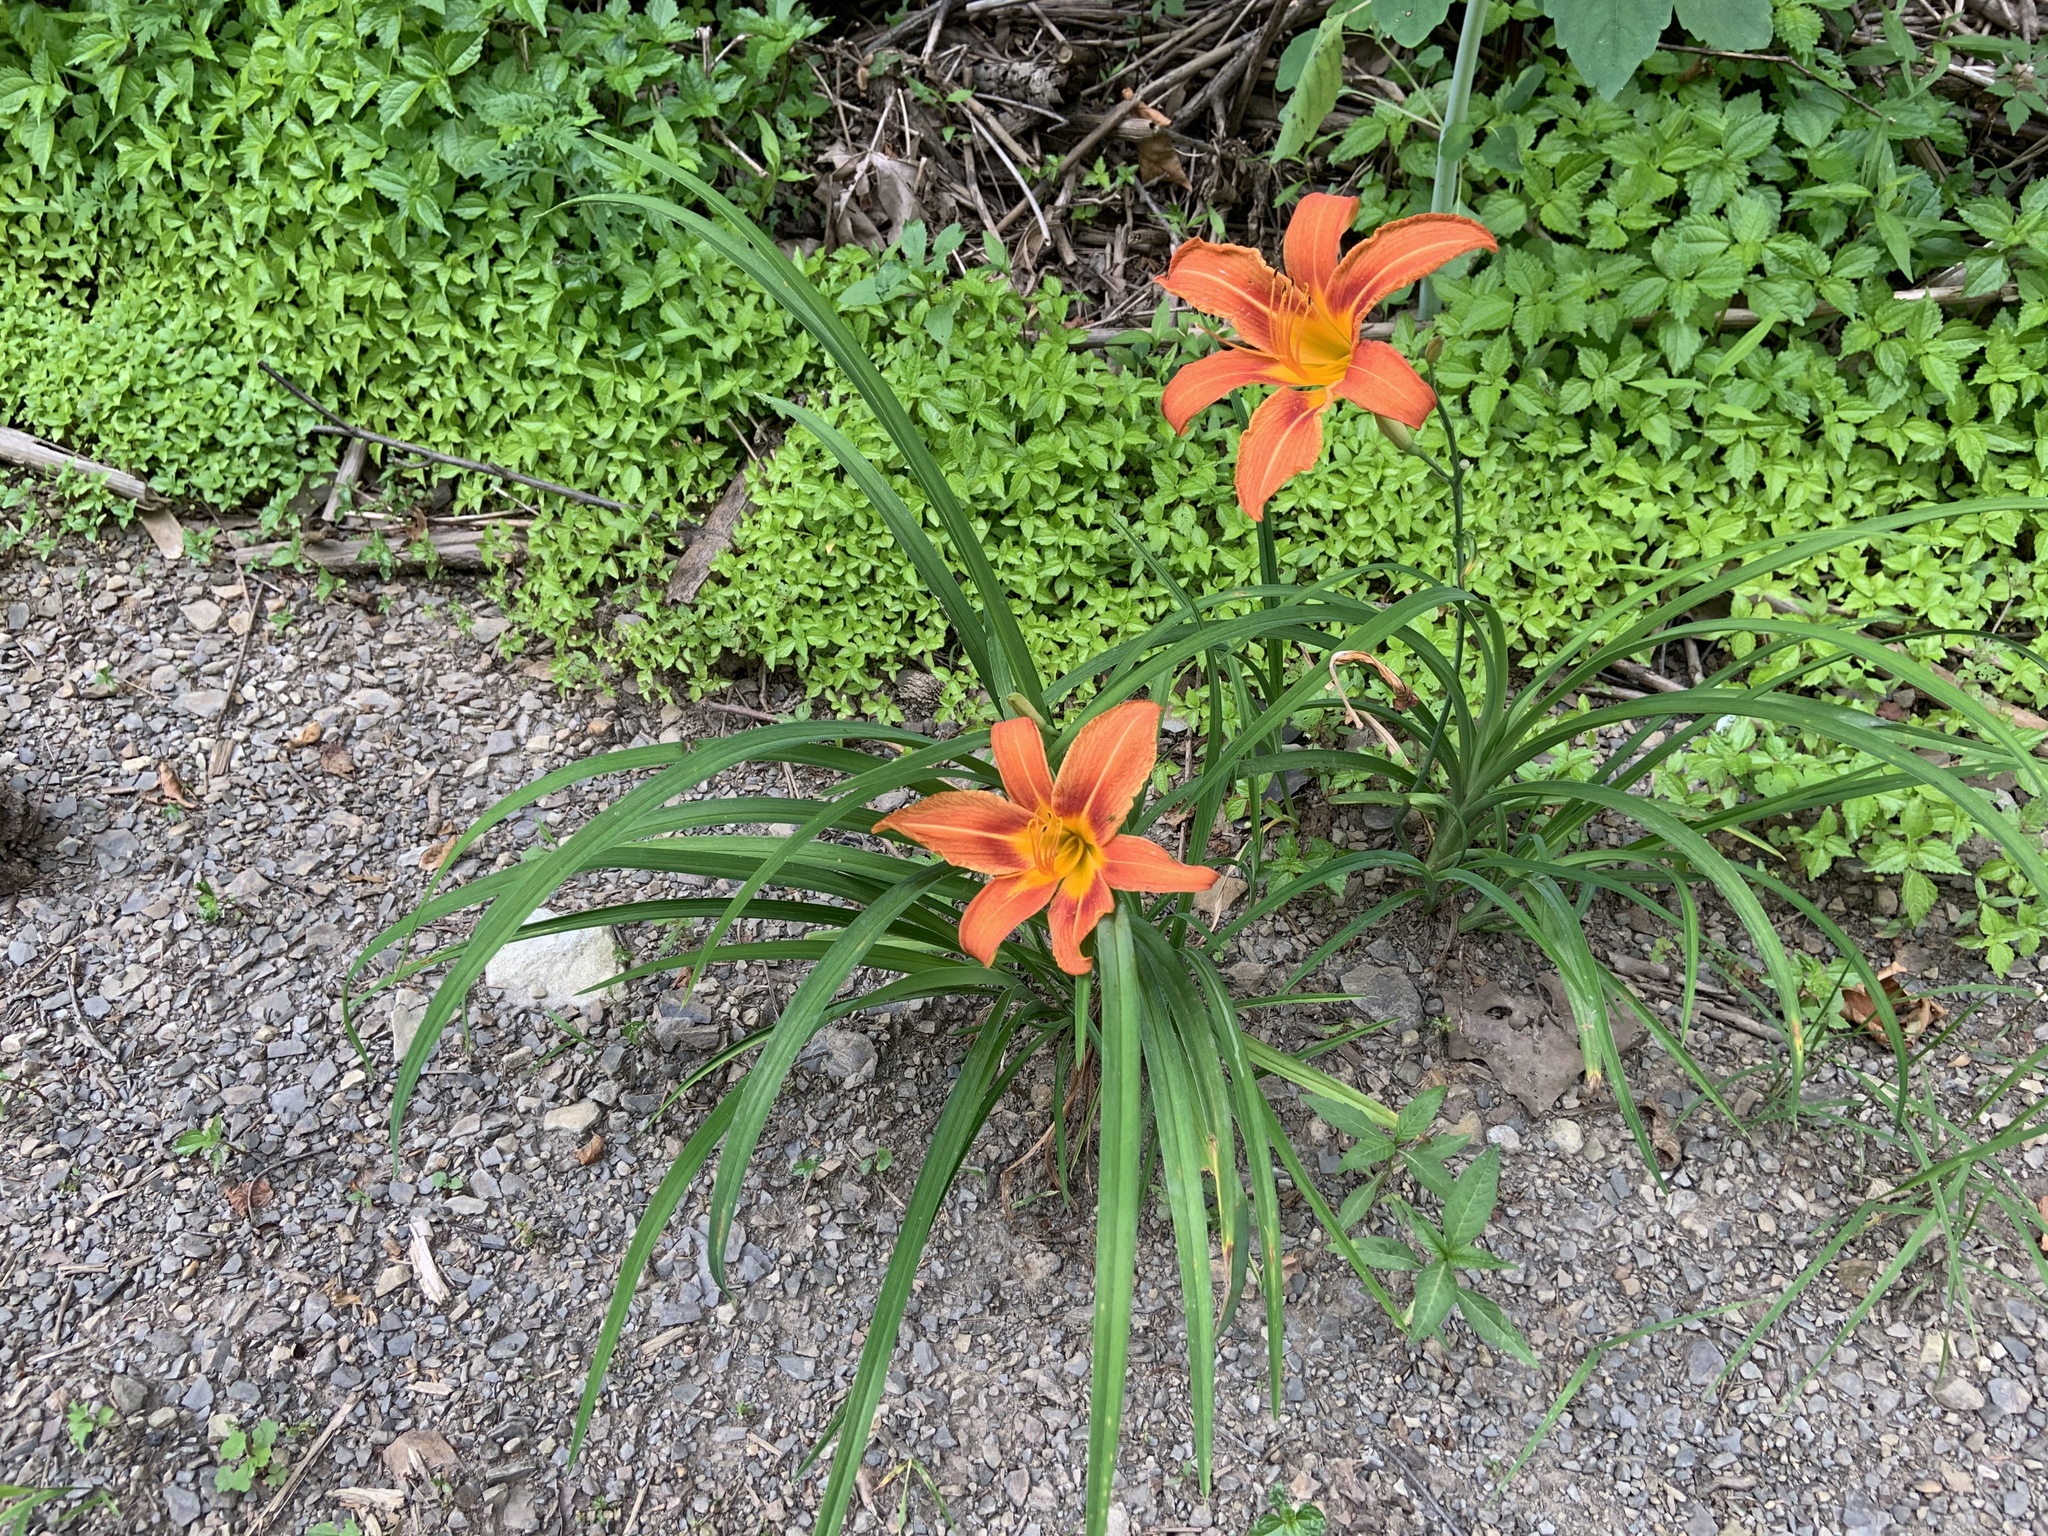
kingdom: Plantae
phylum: Tracheophyta
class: Liliopsida
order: Asparagales
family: Asphodelaceae
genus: Hemerocallis
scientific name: Hemerocallis fulva
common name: Orange day-lily
